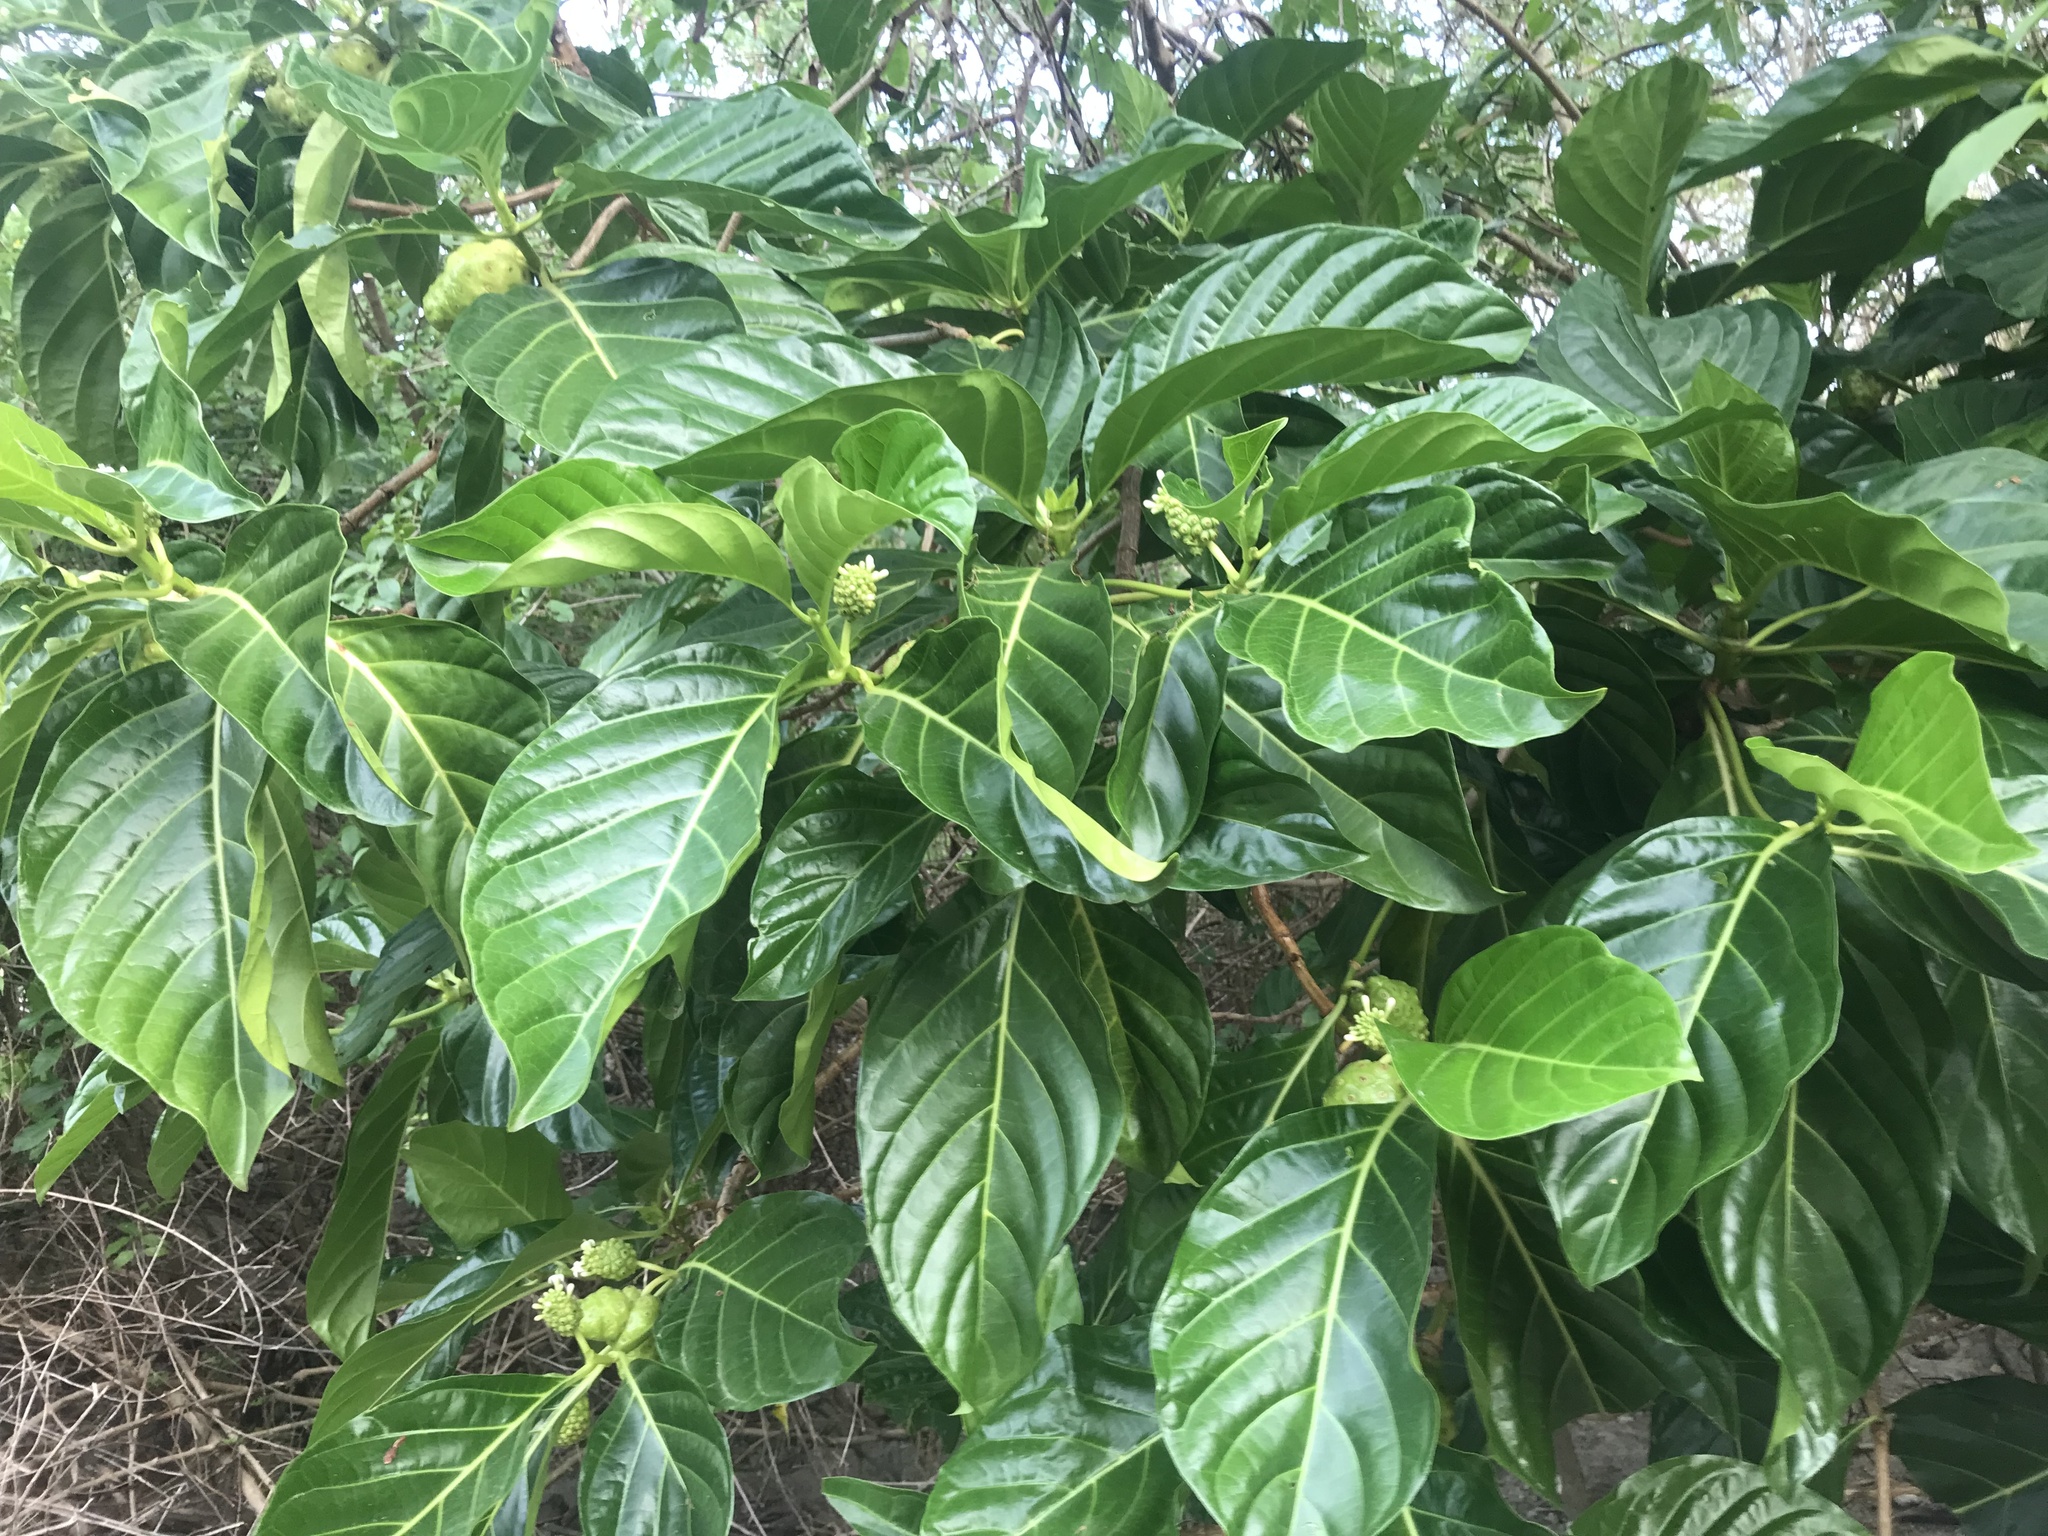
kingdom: Plantae
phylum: Tracheophyta
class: Magnoliopsida
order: Gentianales
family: Rubiaceae
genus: Morinda
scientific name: Morinda citrifolia
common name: Indian-mulberry
